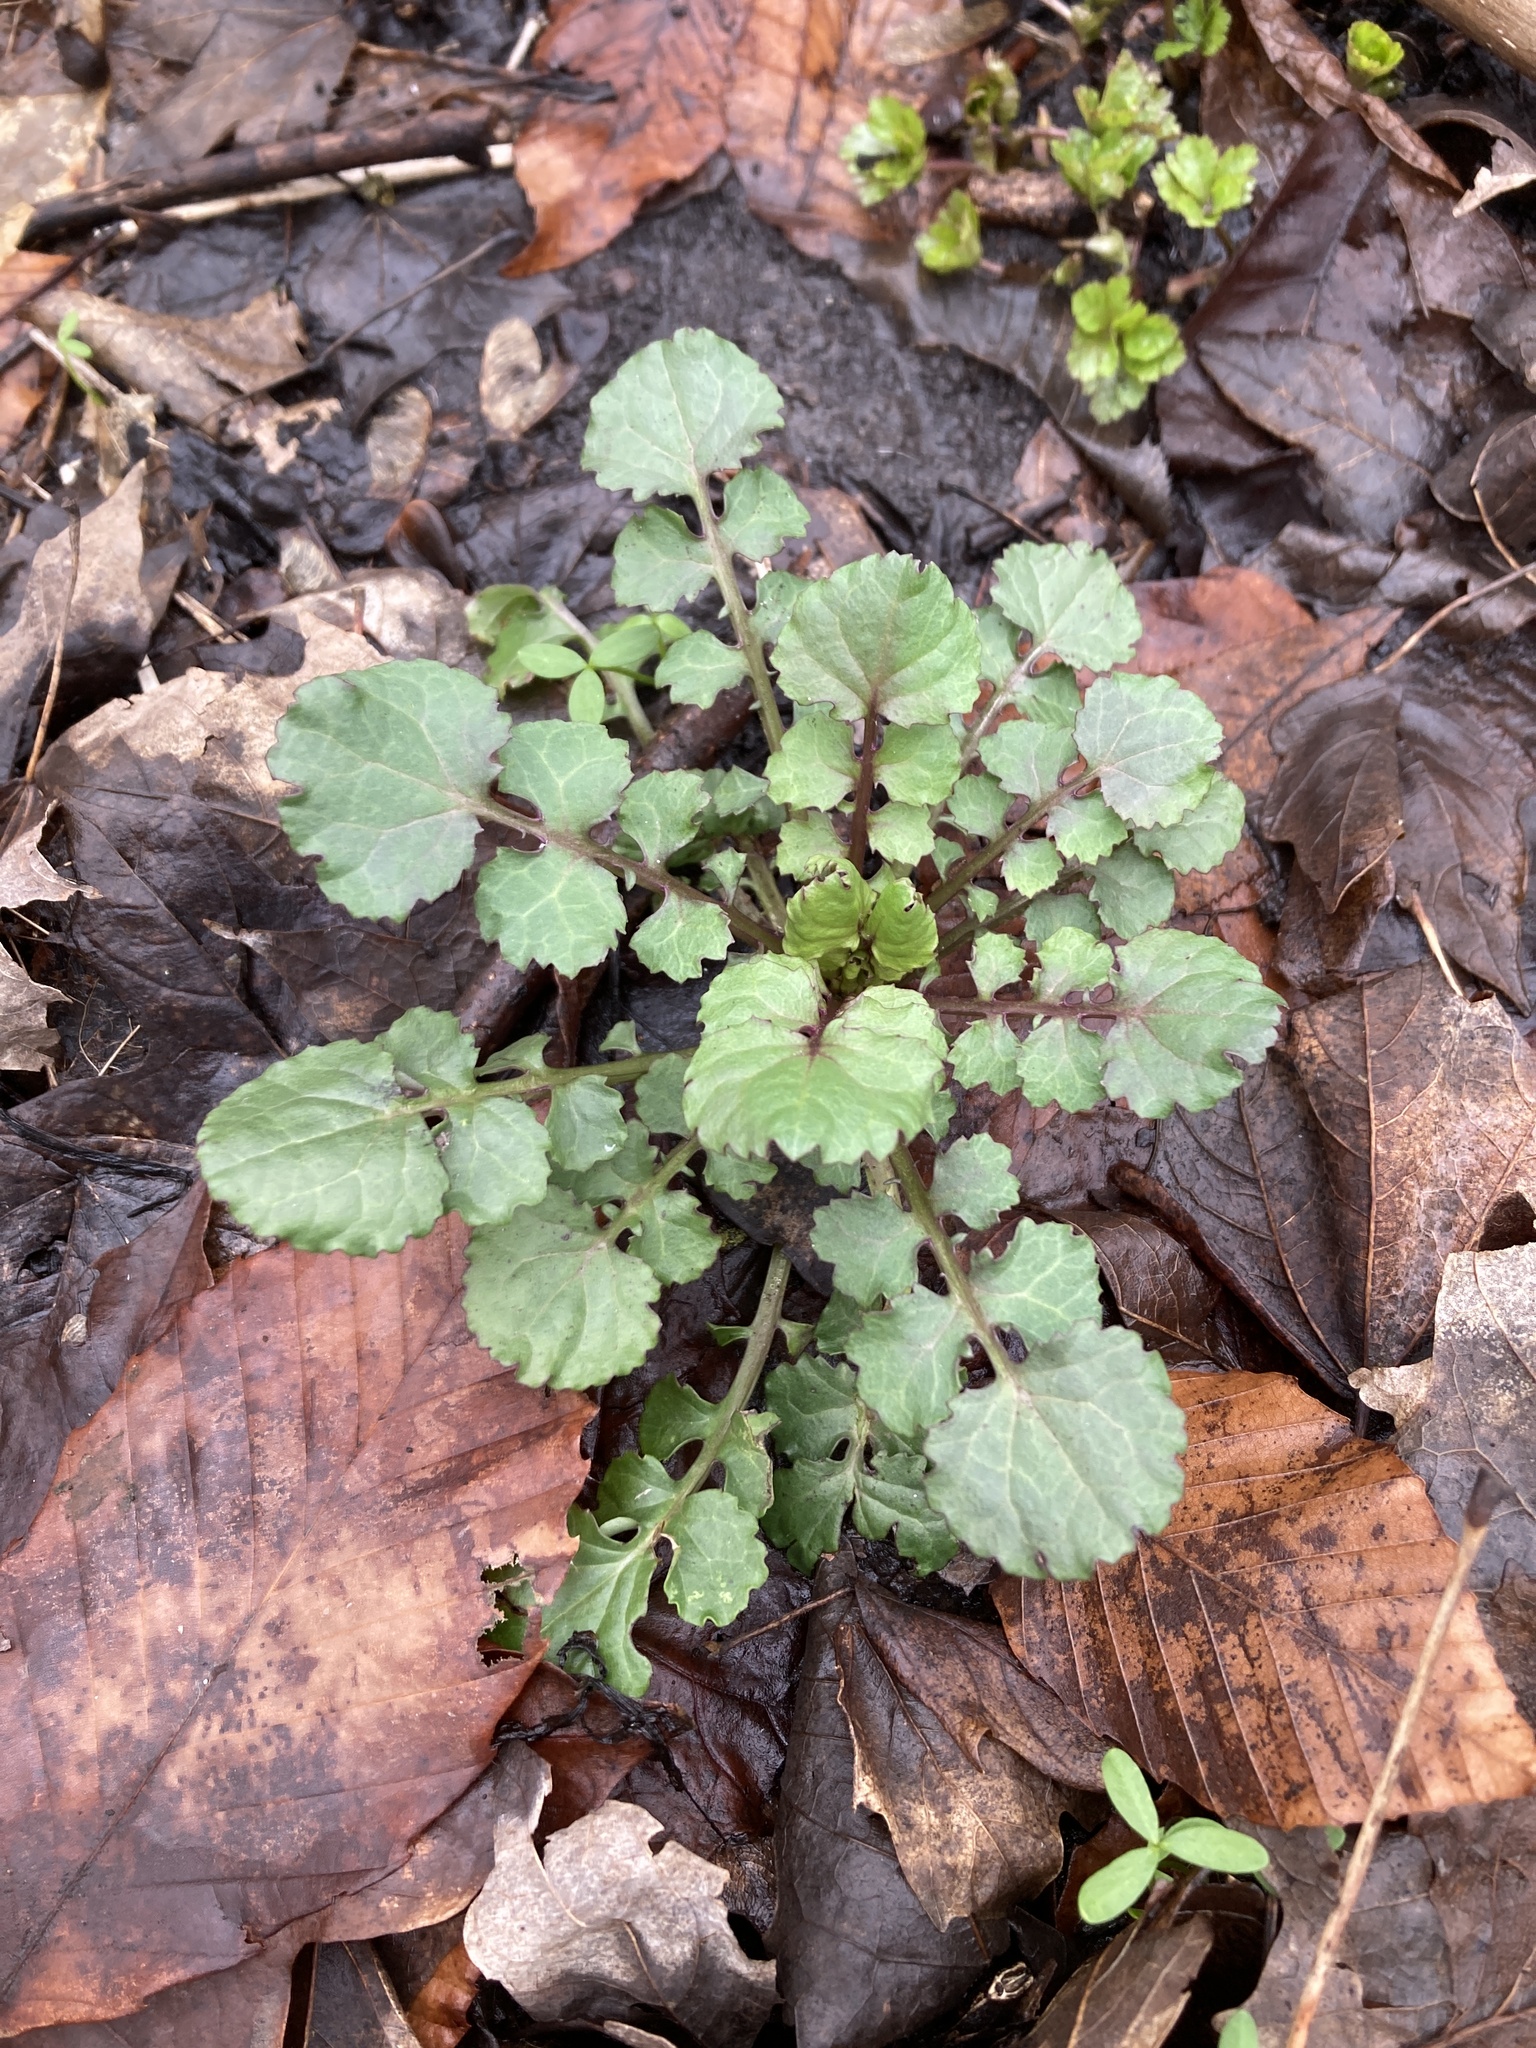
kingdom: Plantae
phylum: Tracheophyta
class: Magnoliopsida
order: Asterales
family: Asteraceae
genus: Packera
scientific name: Packera glabella
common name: Butterweed
